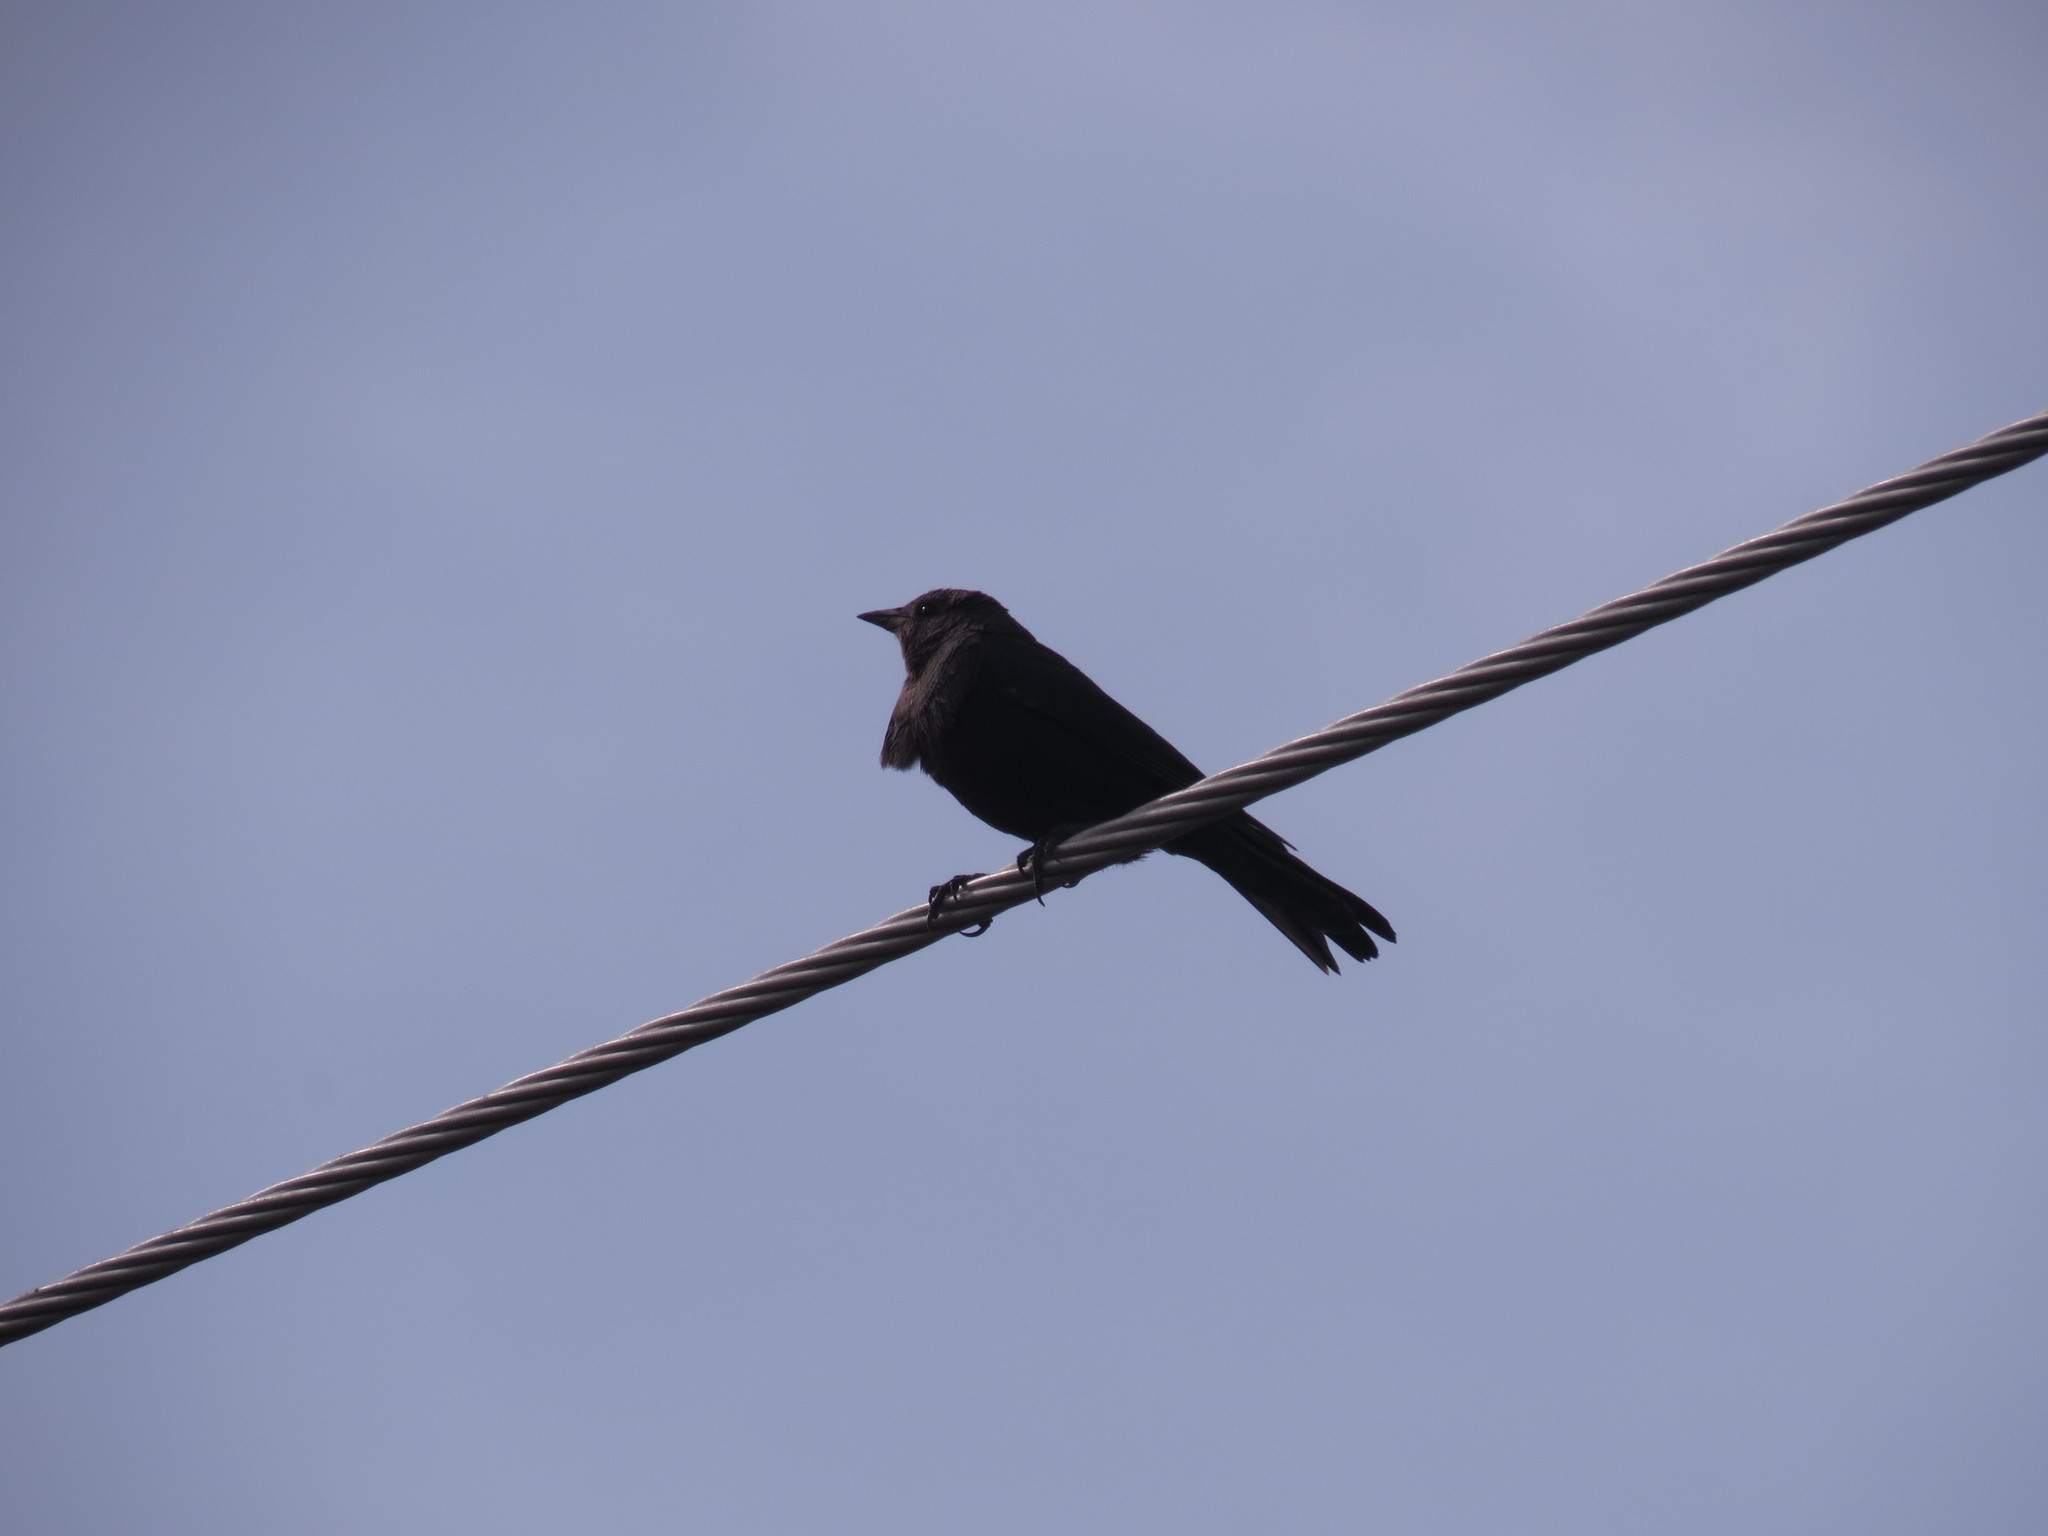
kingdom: Animalia
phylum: Chordata
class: Aves
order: Passeriformes
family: Icteridae
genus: Euphagus
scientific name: Euphagus cyanocephalus
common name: Brewer's blackbird
